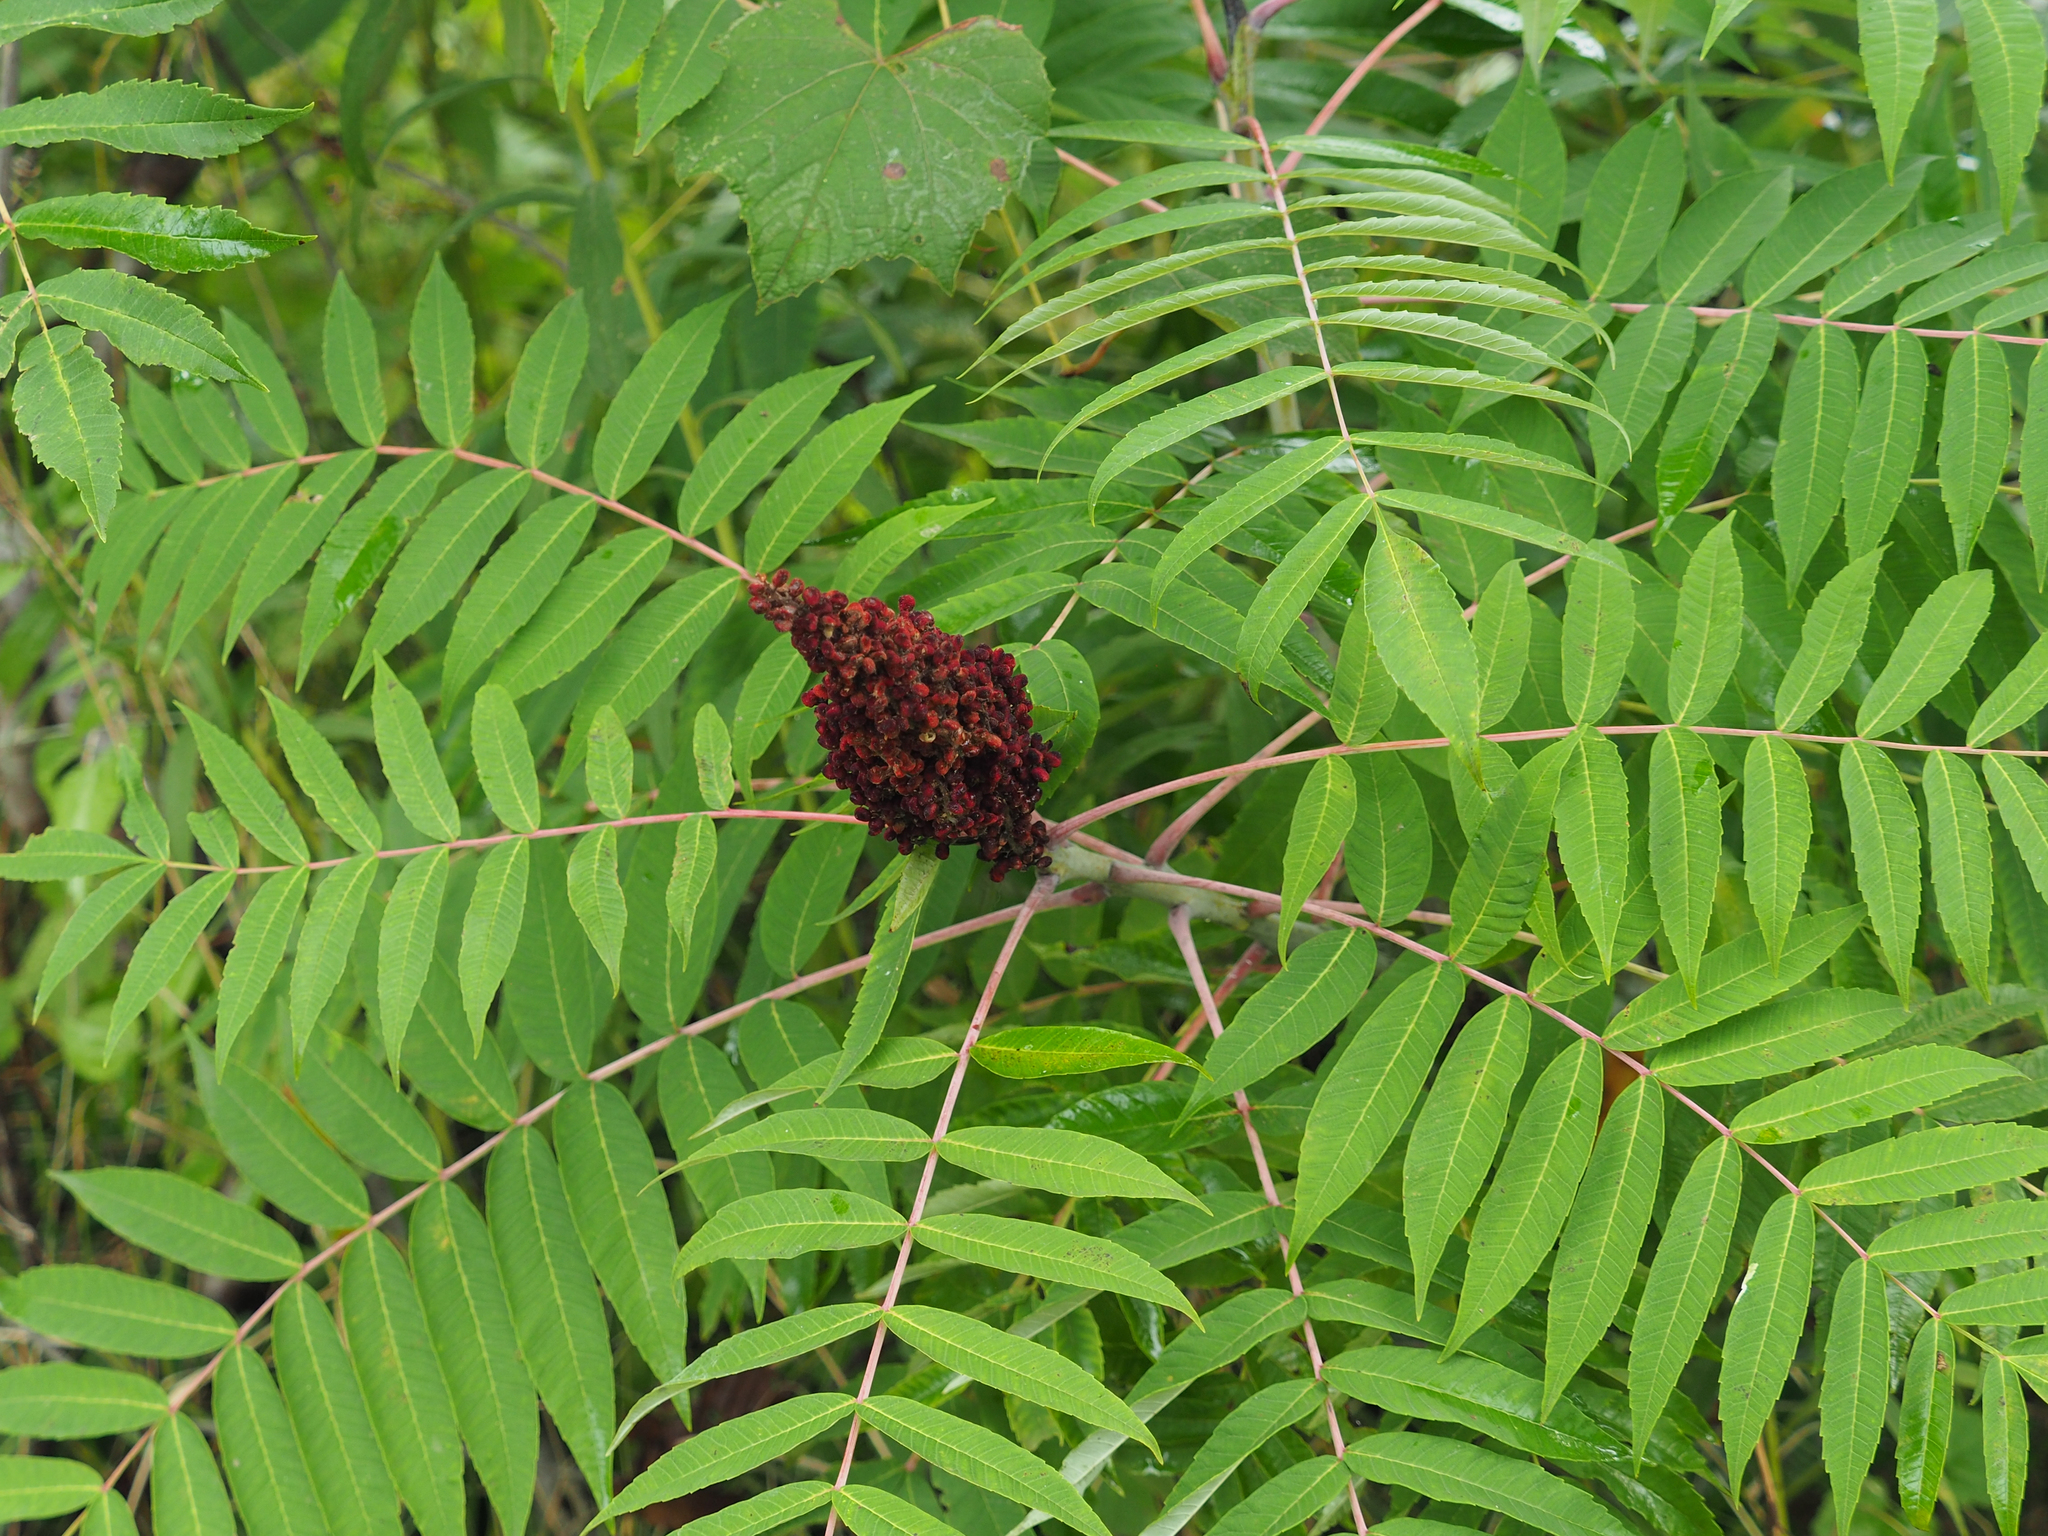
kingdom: Plantae
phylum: Tracheophyta
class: Magnoliopsida
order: Sapindales
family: Anacardiaceae
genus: Rhus
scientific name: Rhus glabra
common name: Scarlet sumac
